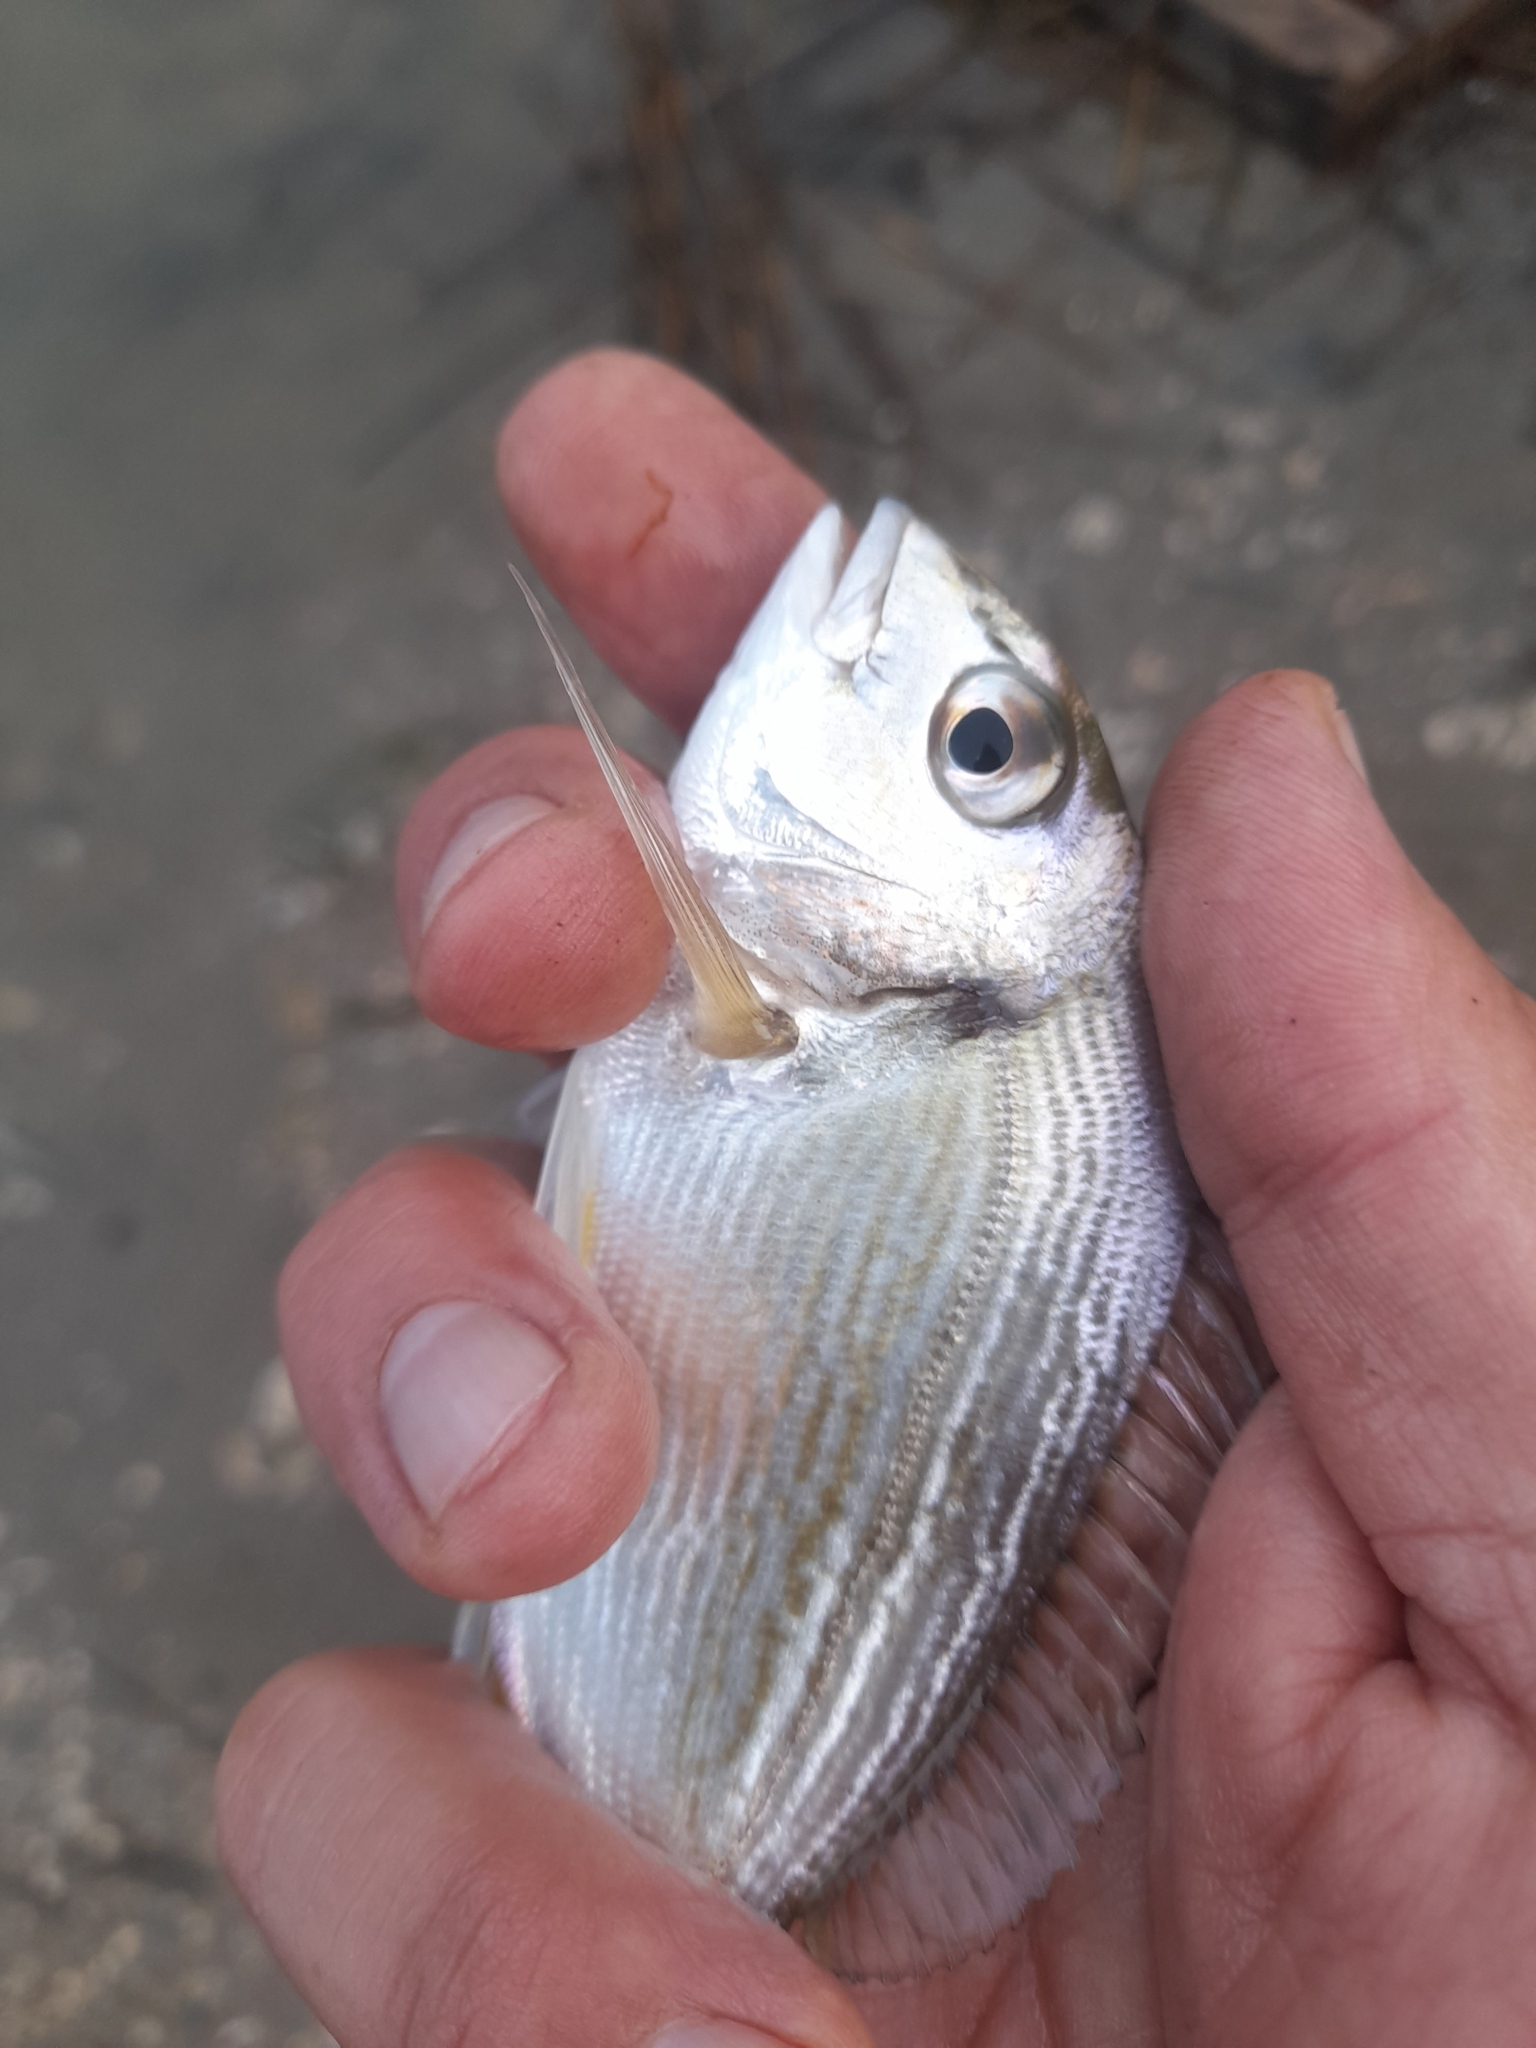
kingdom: Animalia
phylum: Chordata
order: Perciformes
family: Sparidae
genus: Sparus
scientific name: Sparus aurata
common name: Gilthead
